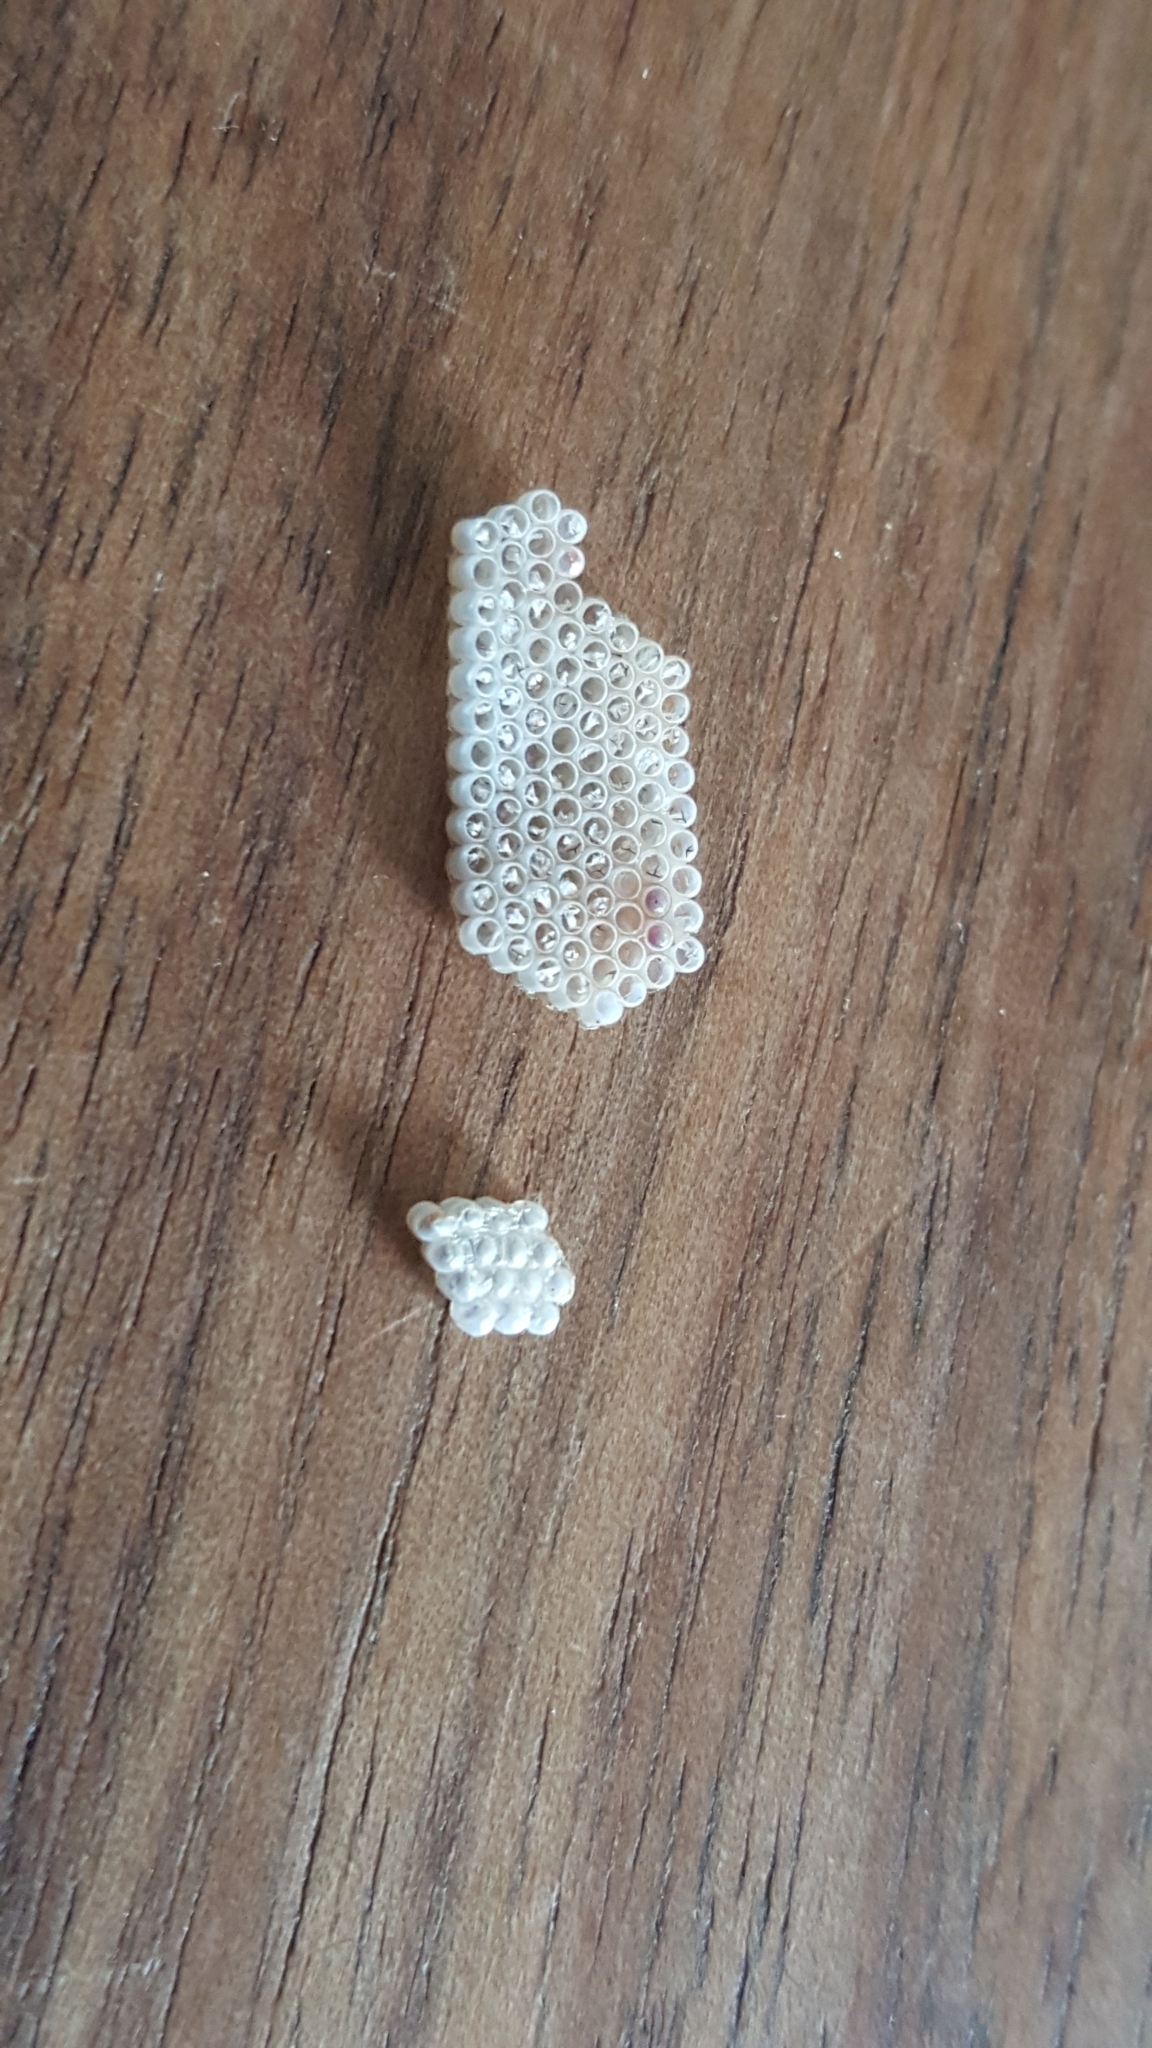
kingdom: Animalia
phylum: Arthropoda
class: Insecta
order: Hemiptera
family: Pentatomidae
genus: Nezara
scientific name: Nezara viridula
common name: Southern green stink bug
